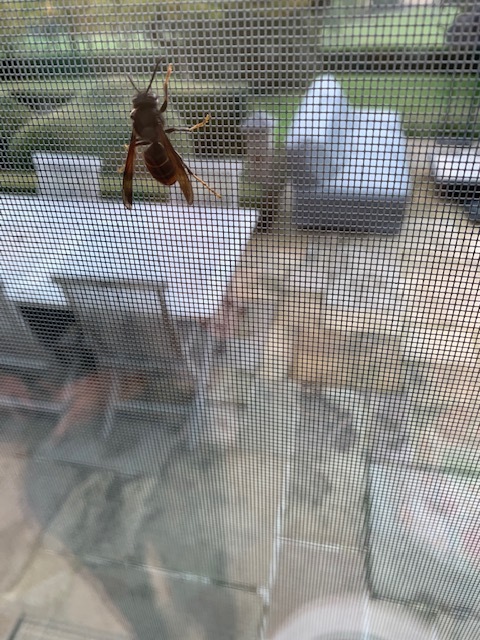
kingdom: Animalia
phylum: Arthropoda
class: Insecta
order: Hymenoptera
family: Vespidae
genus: Vespa
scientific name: Vespa velutina
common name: Asian hornet
